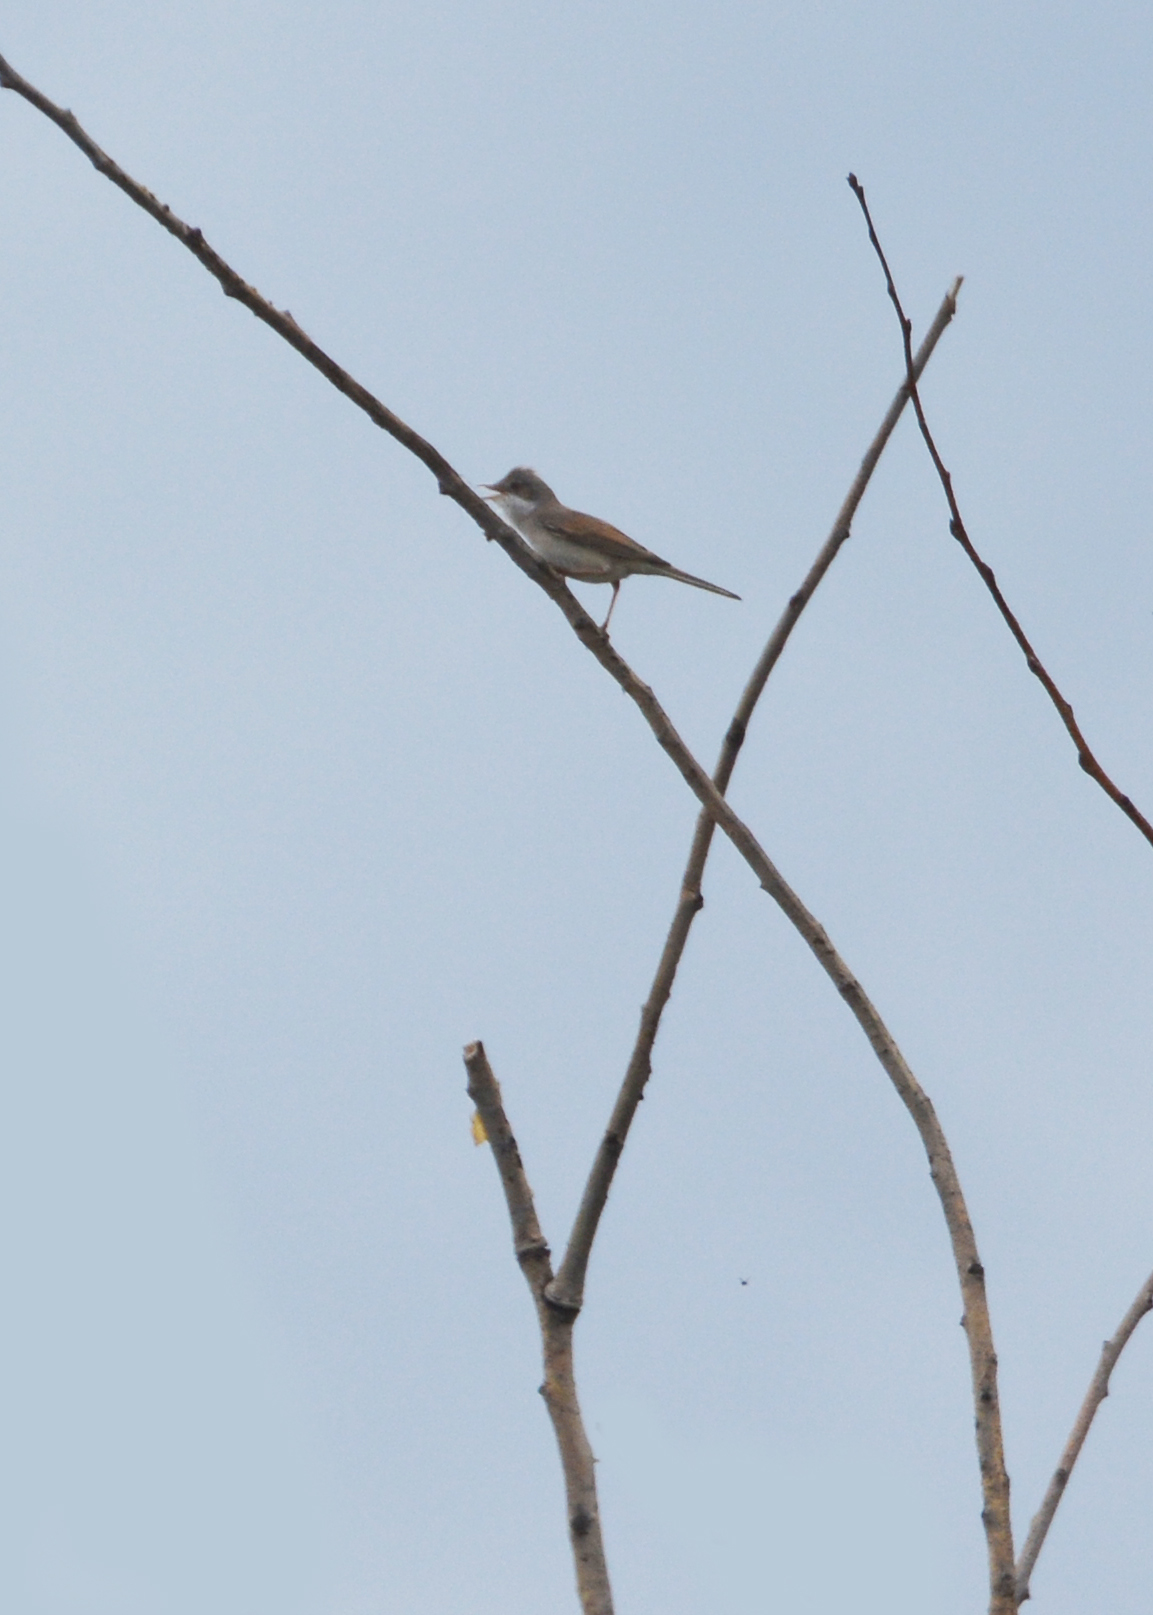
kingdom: Animalia
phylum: Chordata
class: Aves
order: Passeriformes
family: Sylviidae
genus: Sylvia
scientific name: Sylvia communis
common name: Common whitethroat
